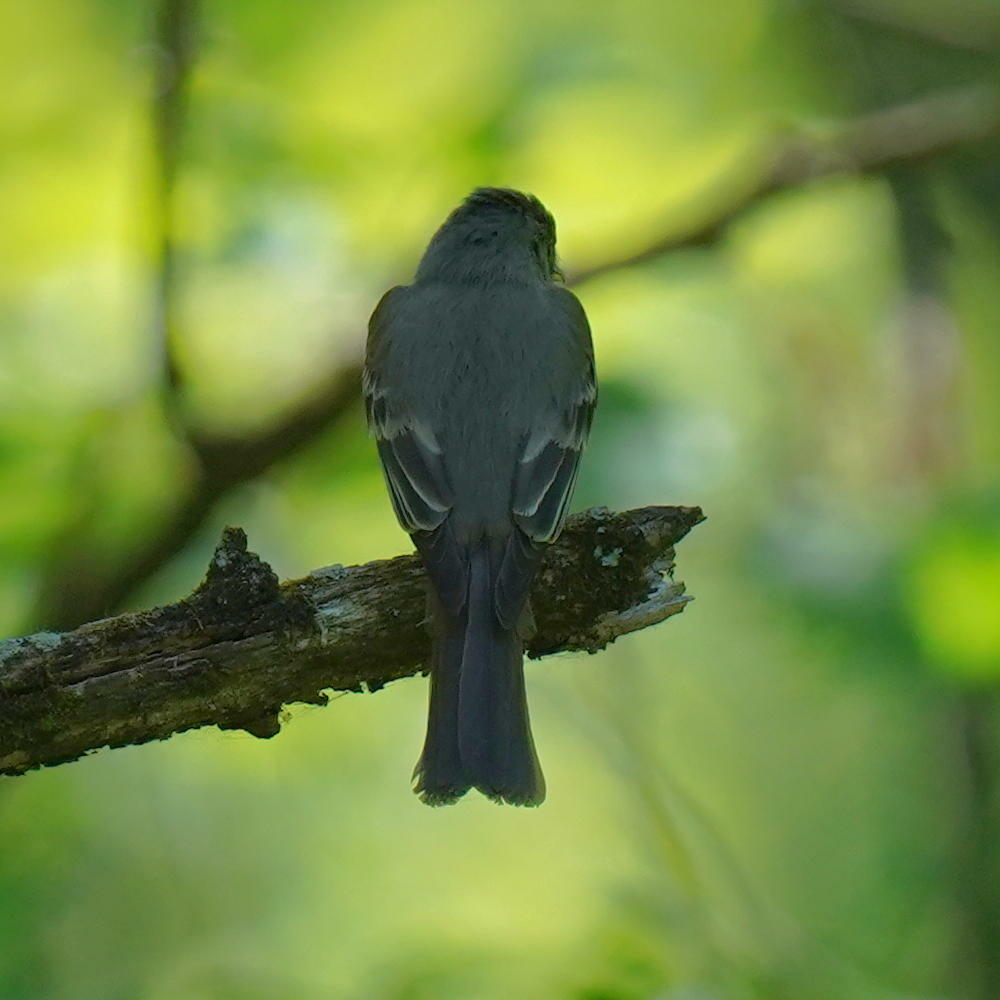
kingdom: Animalia
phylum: Chordata
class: Aves
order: Passeriformes
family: Tyrannidae
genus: Contopus
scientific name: Contopus virens
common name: Eastern wood-pewee
